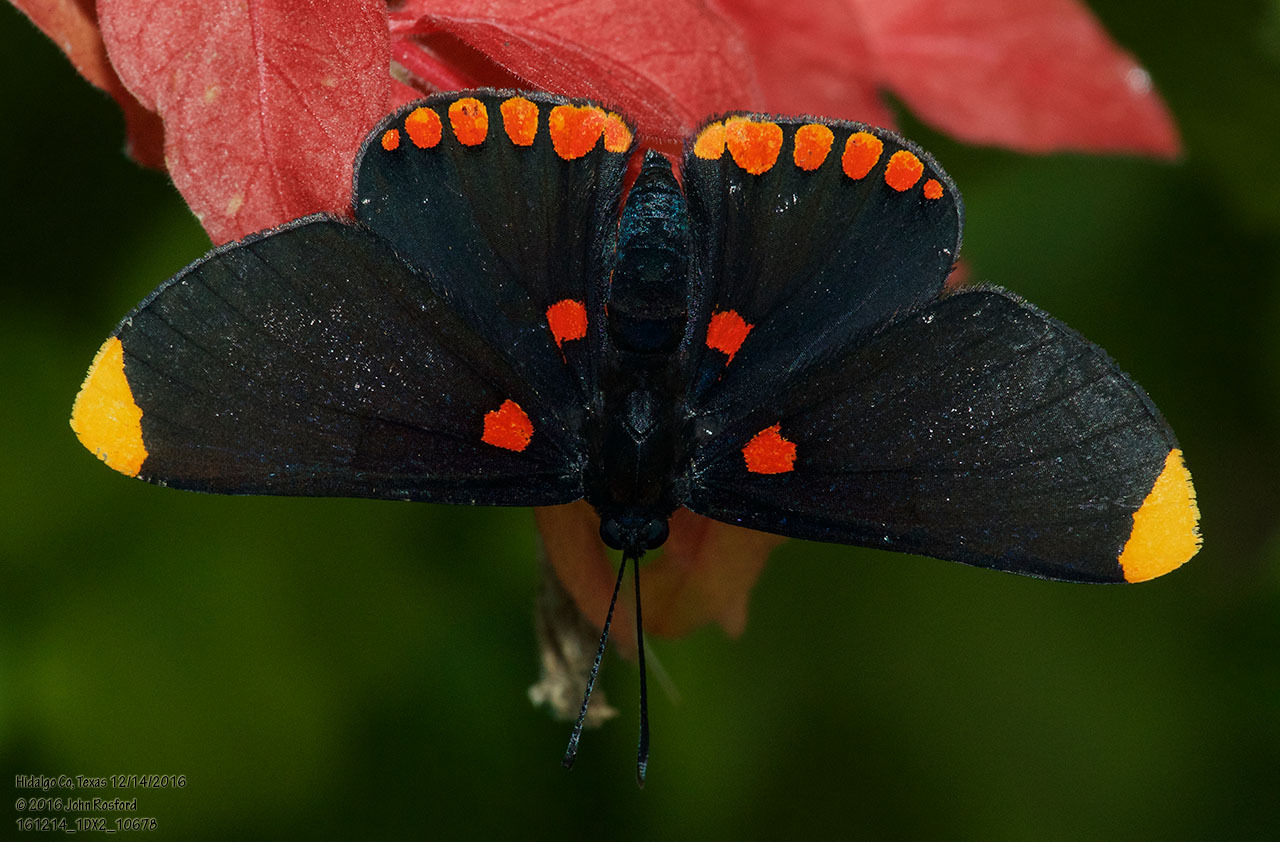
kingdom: Animalia
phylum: Arthropoda
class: Insecta
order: Lepidoptera
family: Lycaenidae
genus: Melanis
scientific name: Melanis pixe
